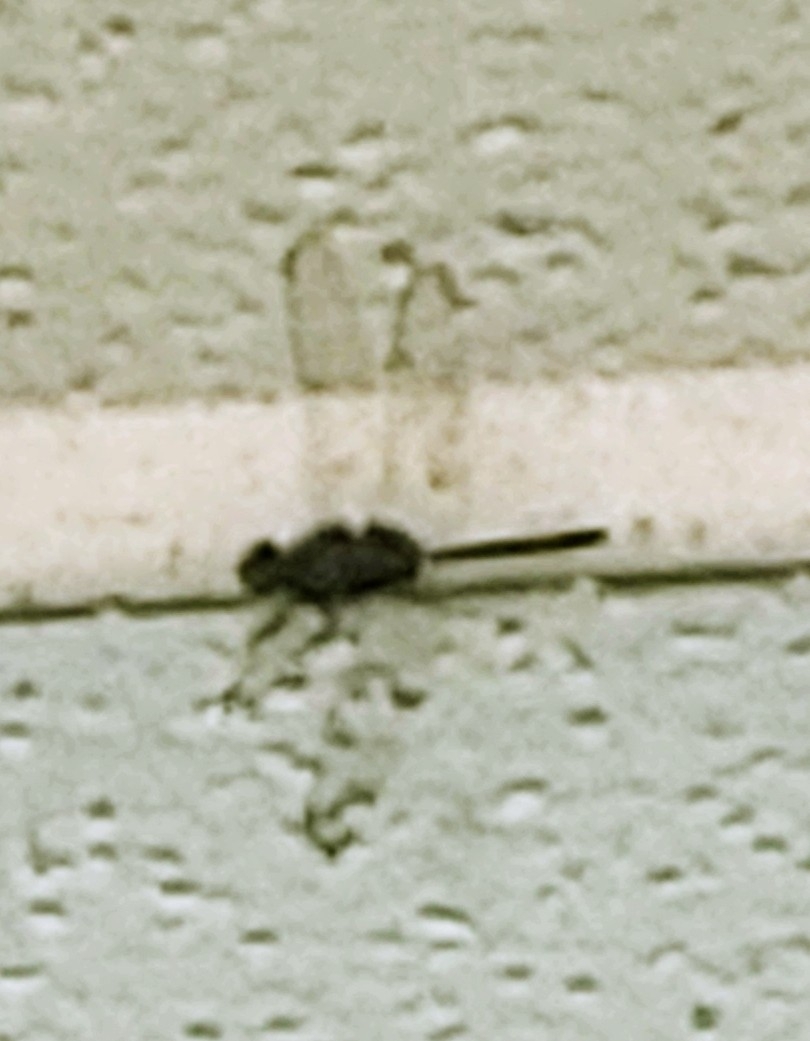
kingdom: Animalia
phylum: Arthropoda
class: Insecta
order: Odonata
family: Libellulidae
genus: Erythemis
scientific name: Erythemis plebeja
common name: Pin-tailed pondhawk
